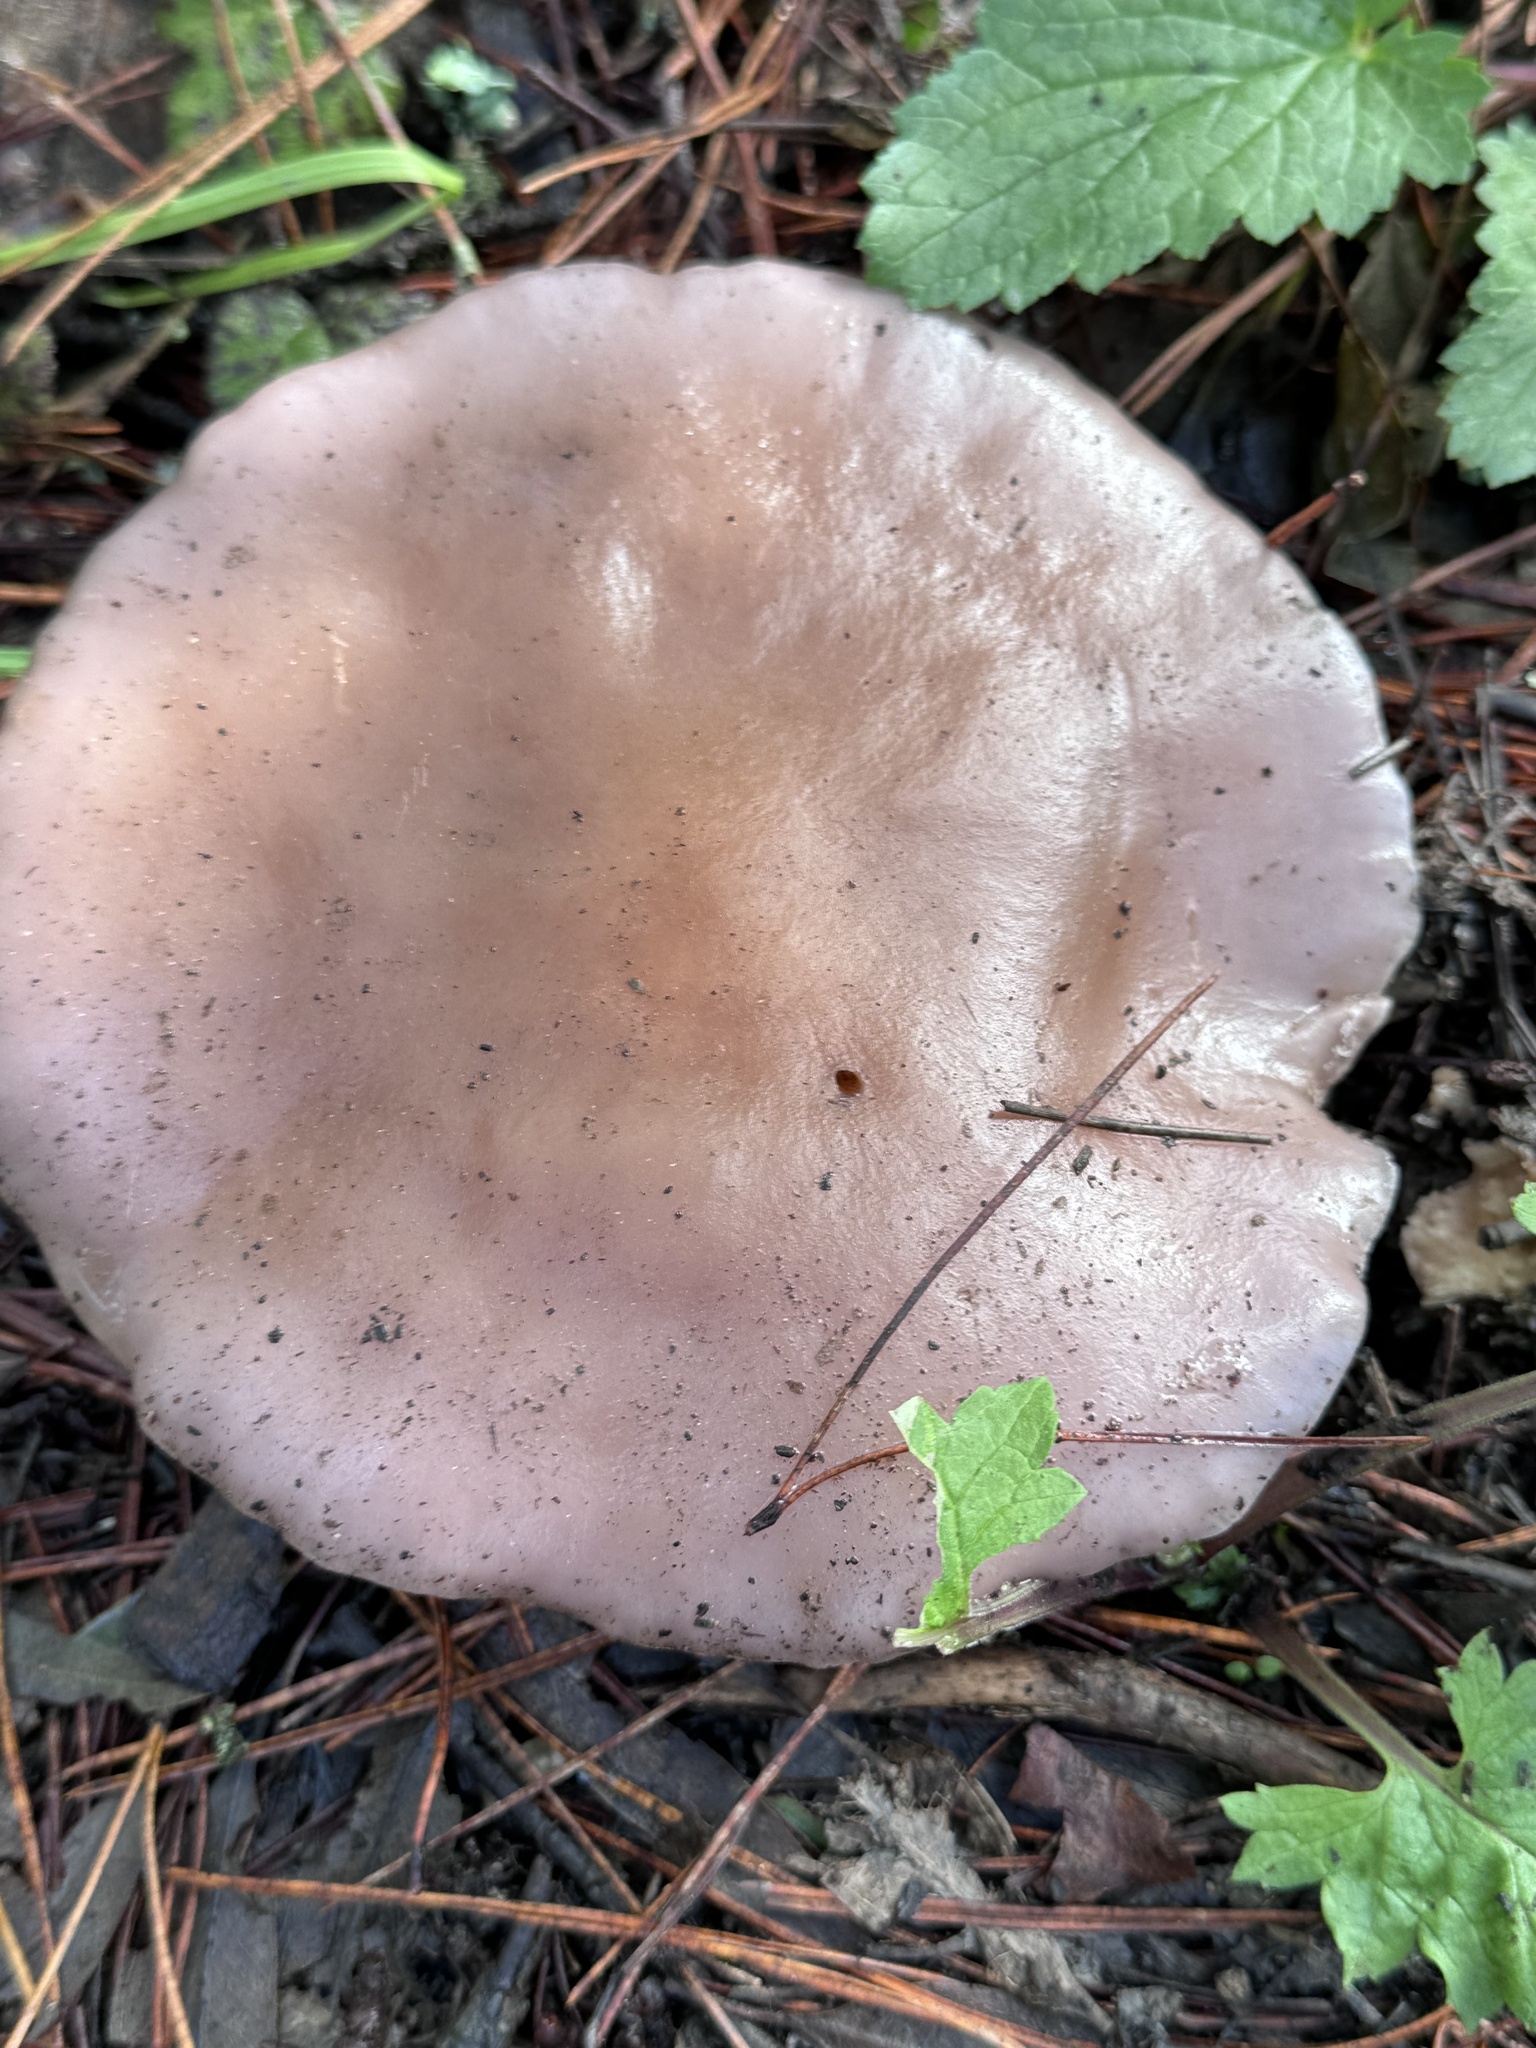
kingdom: Fungi
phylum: Basidiomycota
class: Agaricomycetes
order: Agaricales
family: Tricholomataceae
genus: Collybia
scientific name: Collybia
